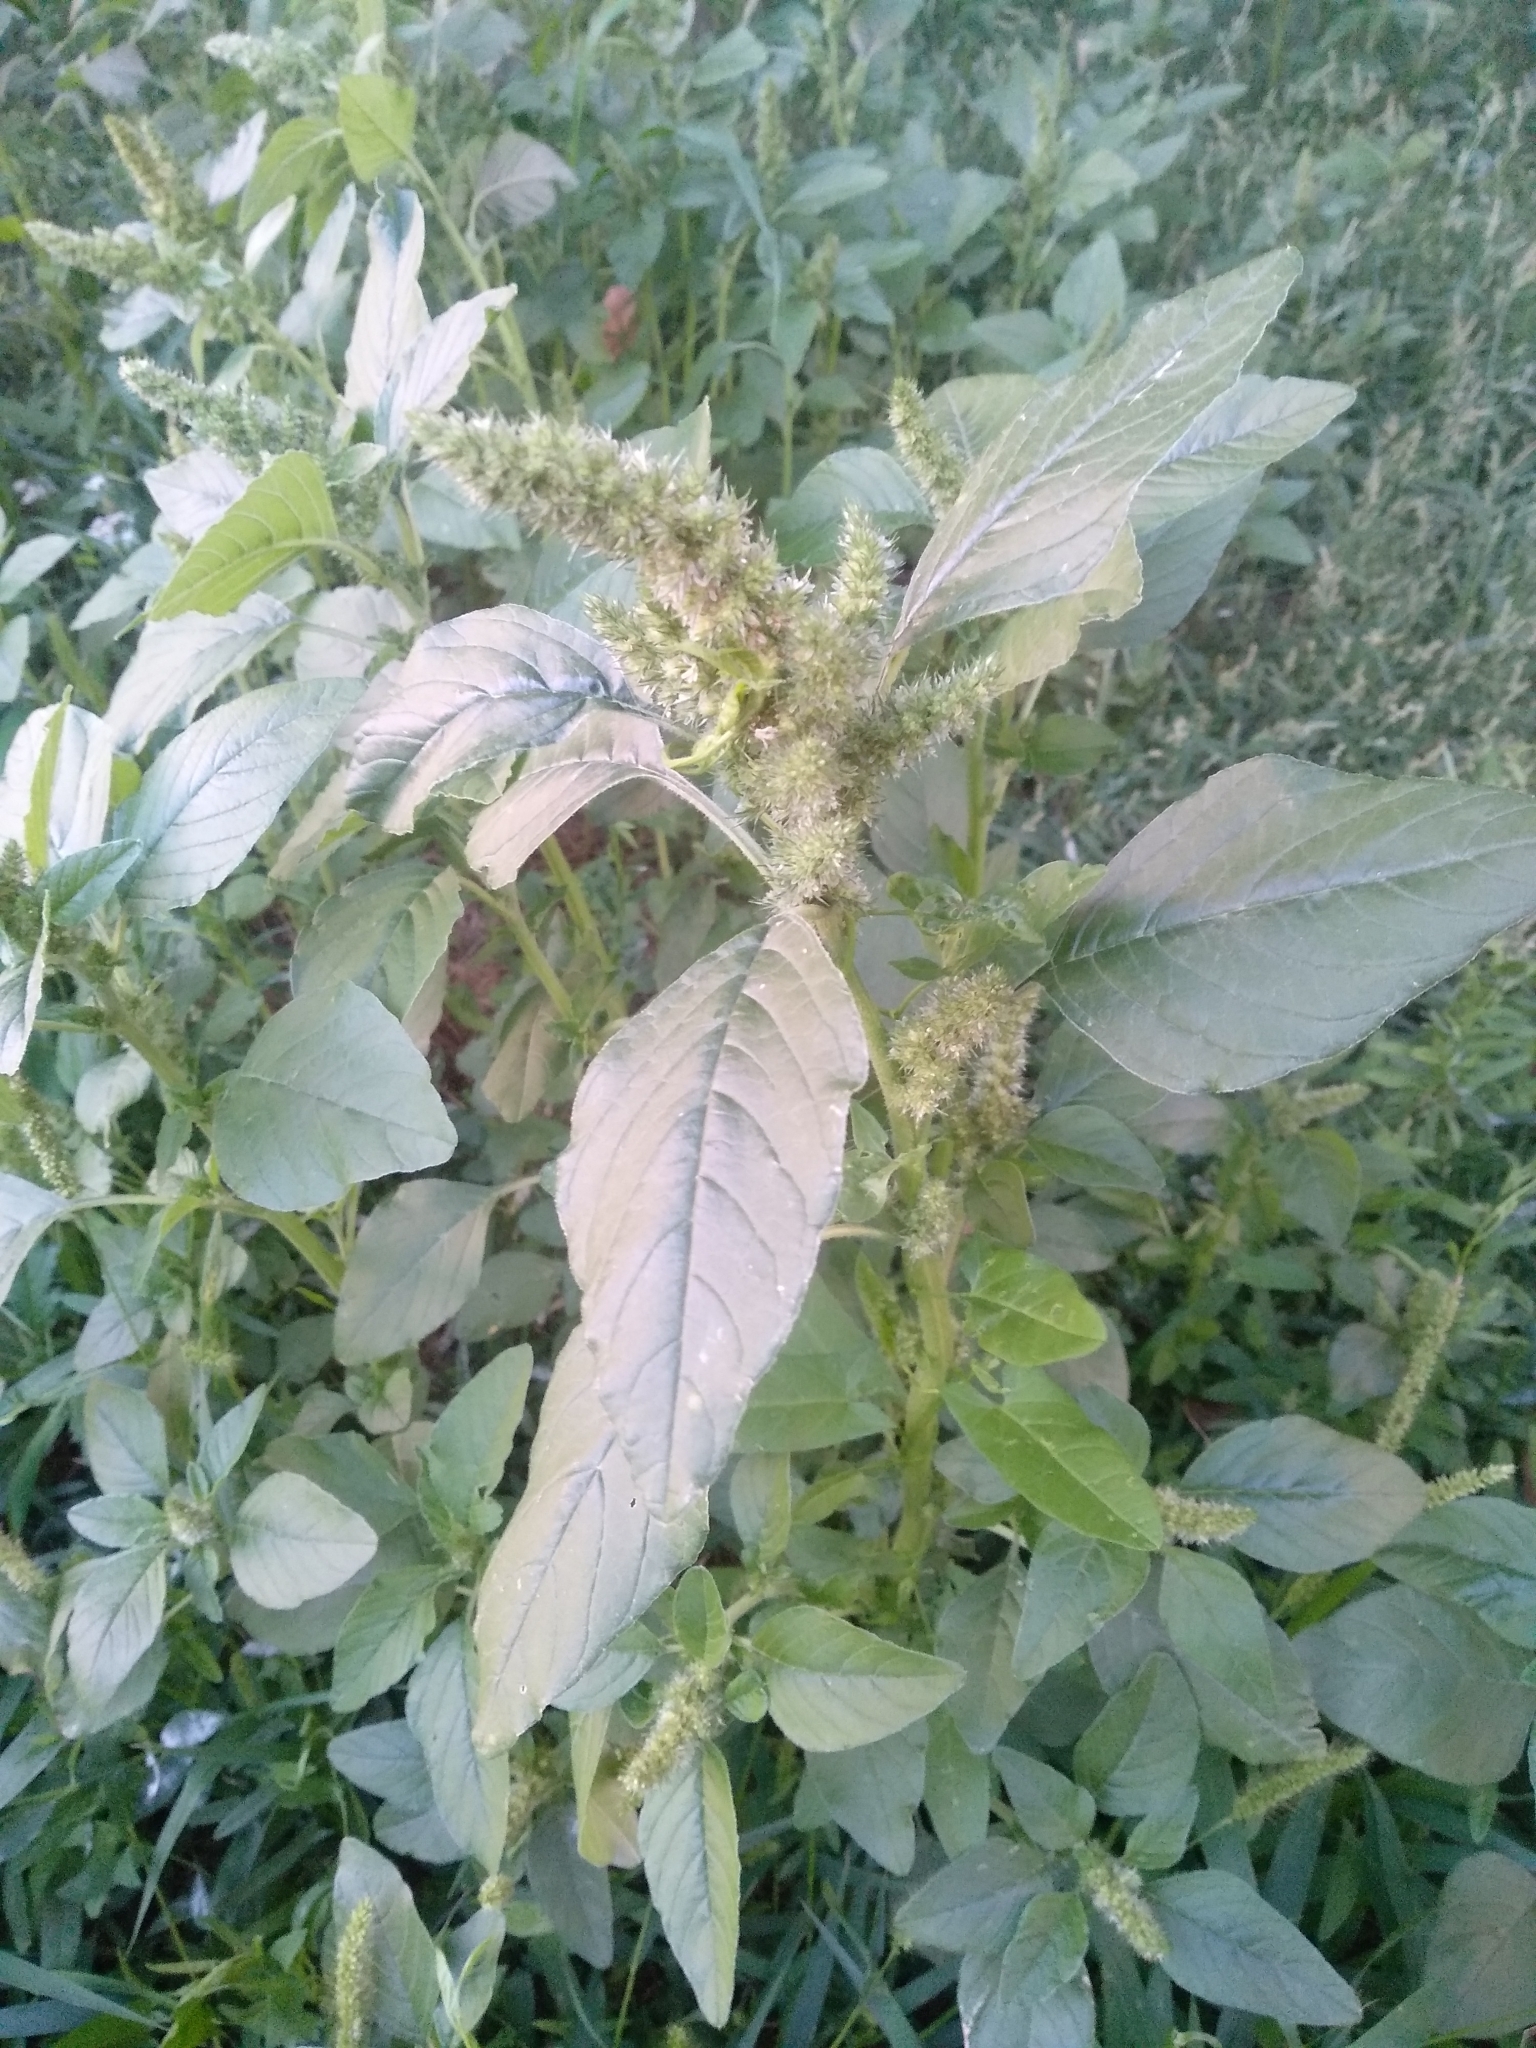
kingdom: Plantae
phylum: Tracheophyta
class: Magnoliopsida
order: Caryophyllales
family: Amaranthaceae
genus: Amaranthus
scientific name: Amaranthus retroflexus
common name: Redroot amaranth
